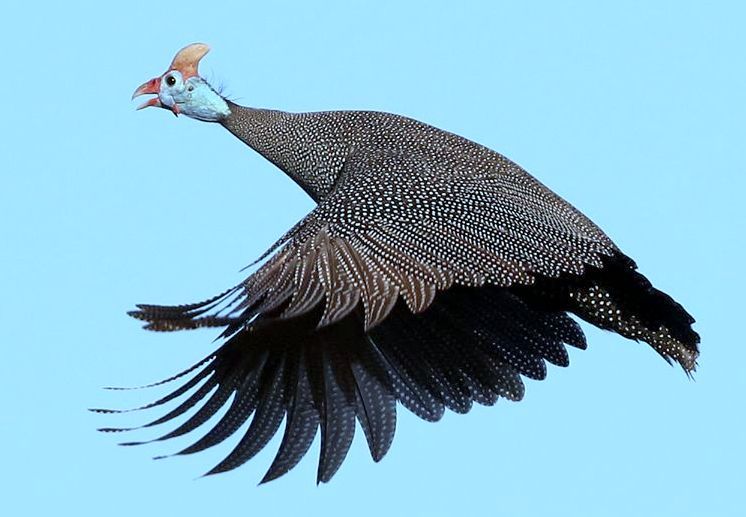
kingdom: Animalia
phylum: Chordata
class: Aves
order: Galliformes
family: Numididae
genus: Numida
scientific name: Numida meleagris
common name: Helmeted guineafowl
